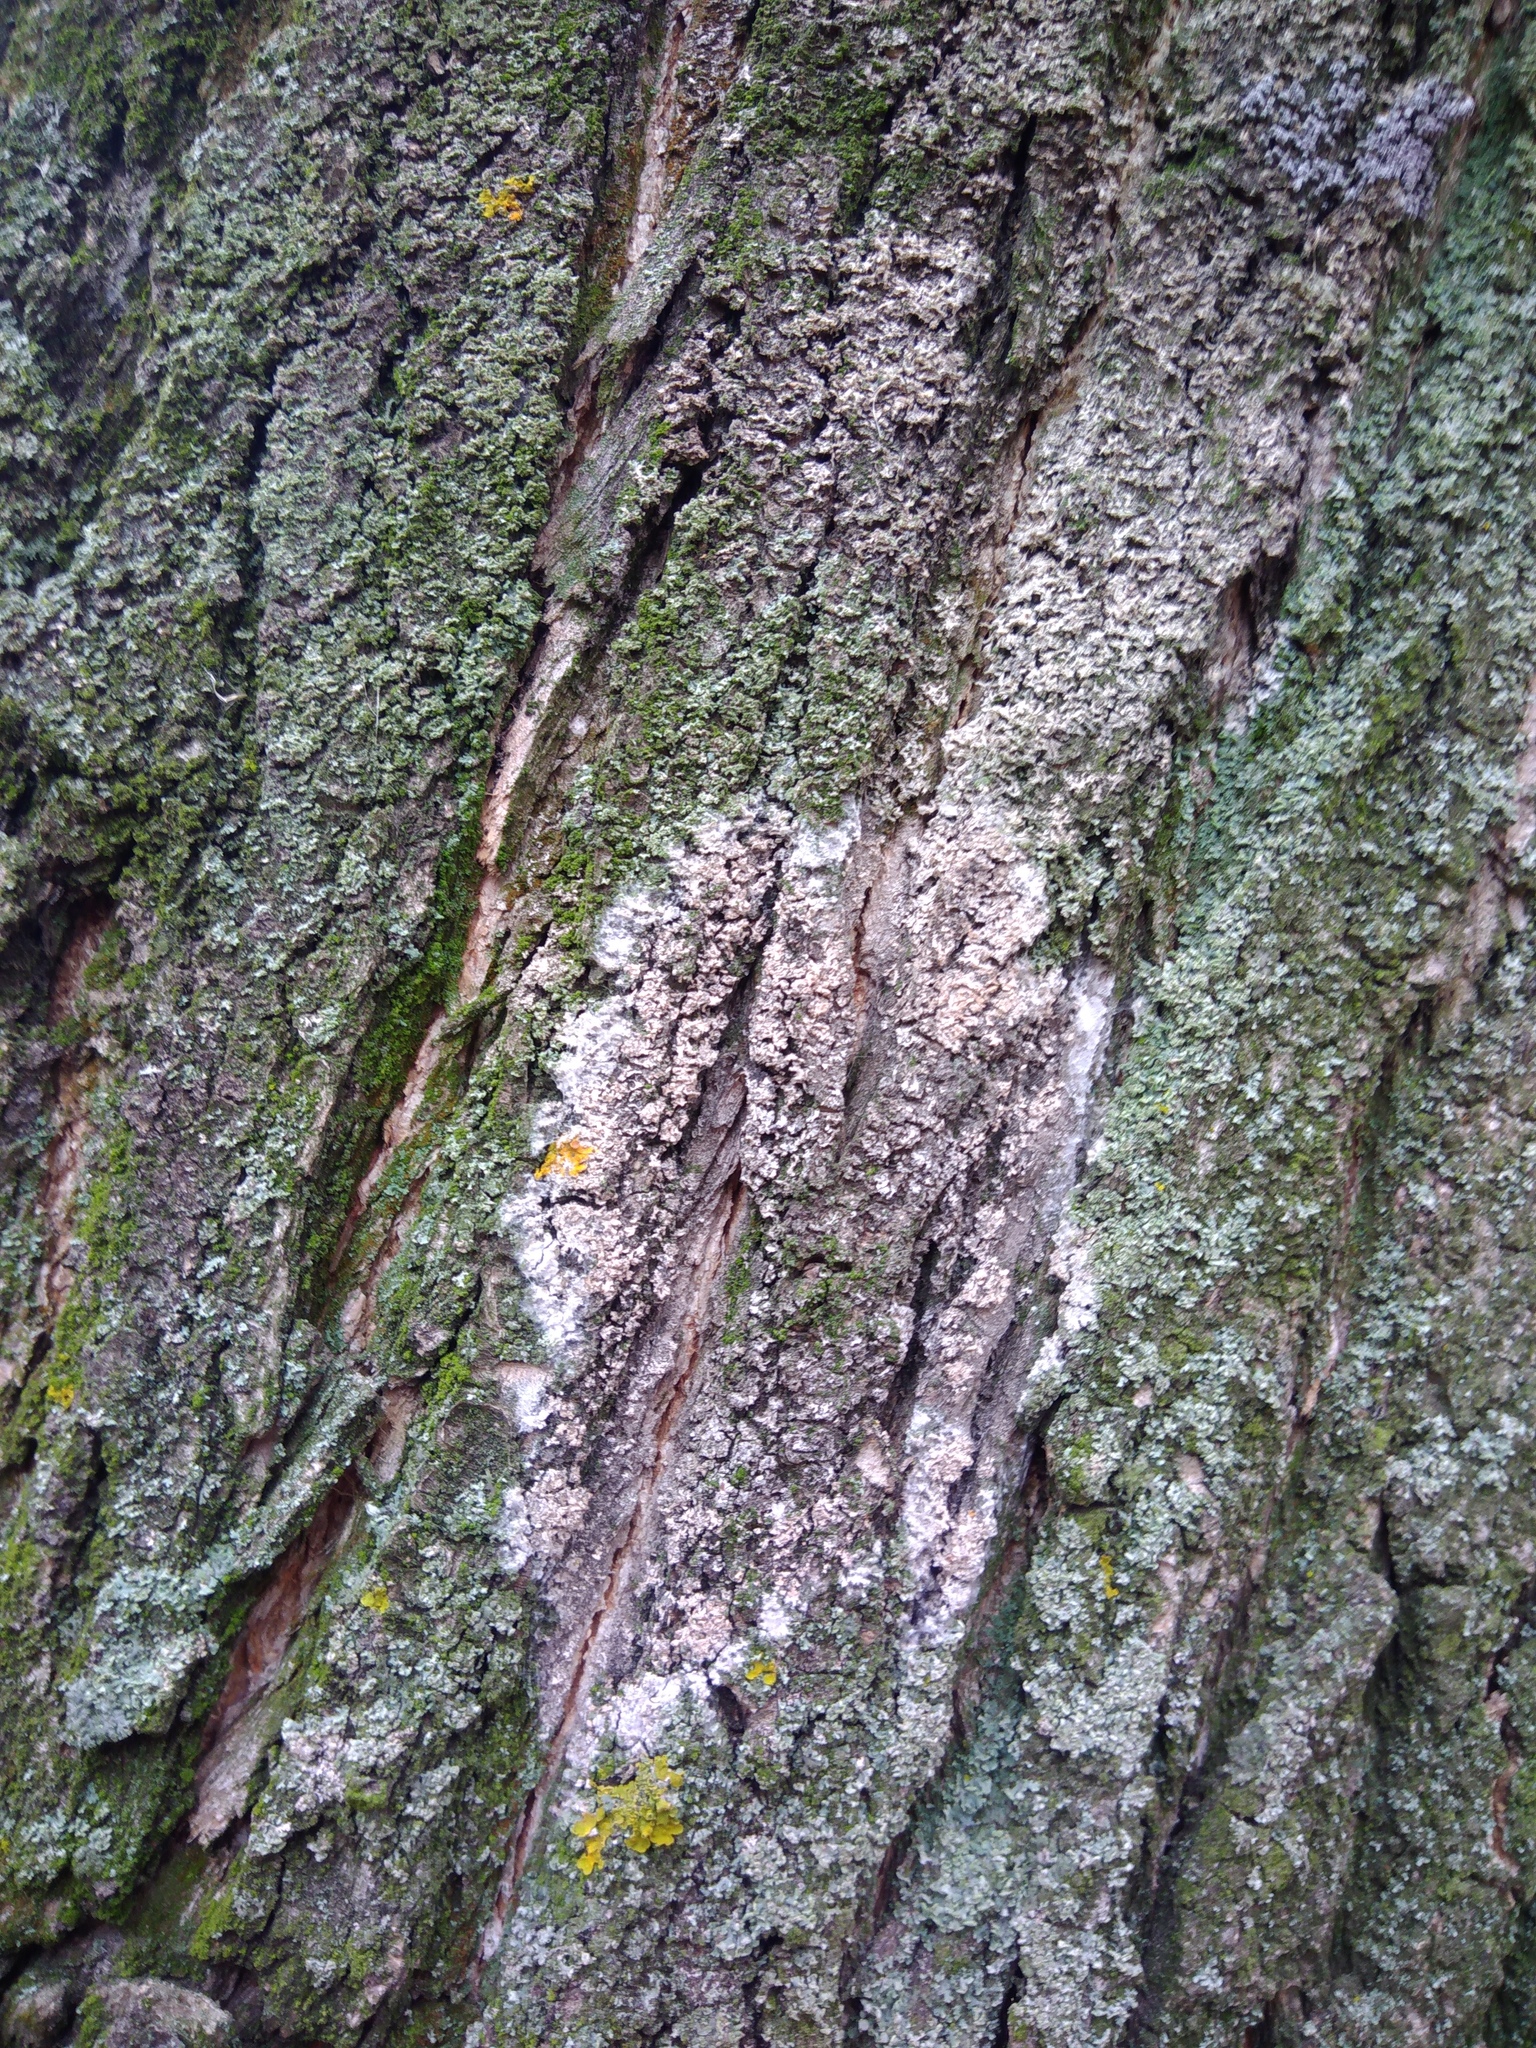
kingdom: Fungi
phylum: Basidiomycota
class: Agaricomycetes
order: Atheliales
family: Atheliaceae
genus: Athelia
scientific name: Athelia arachnoidea
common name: Candelabra duster
